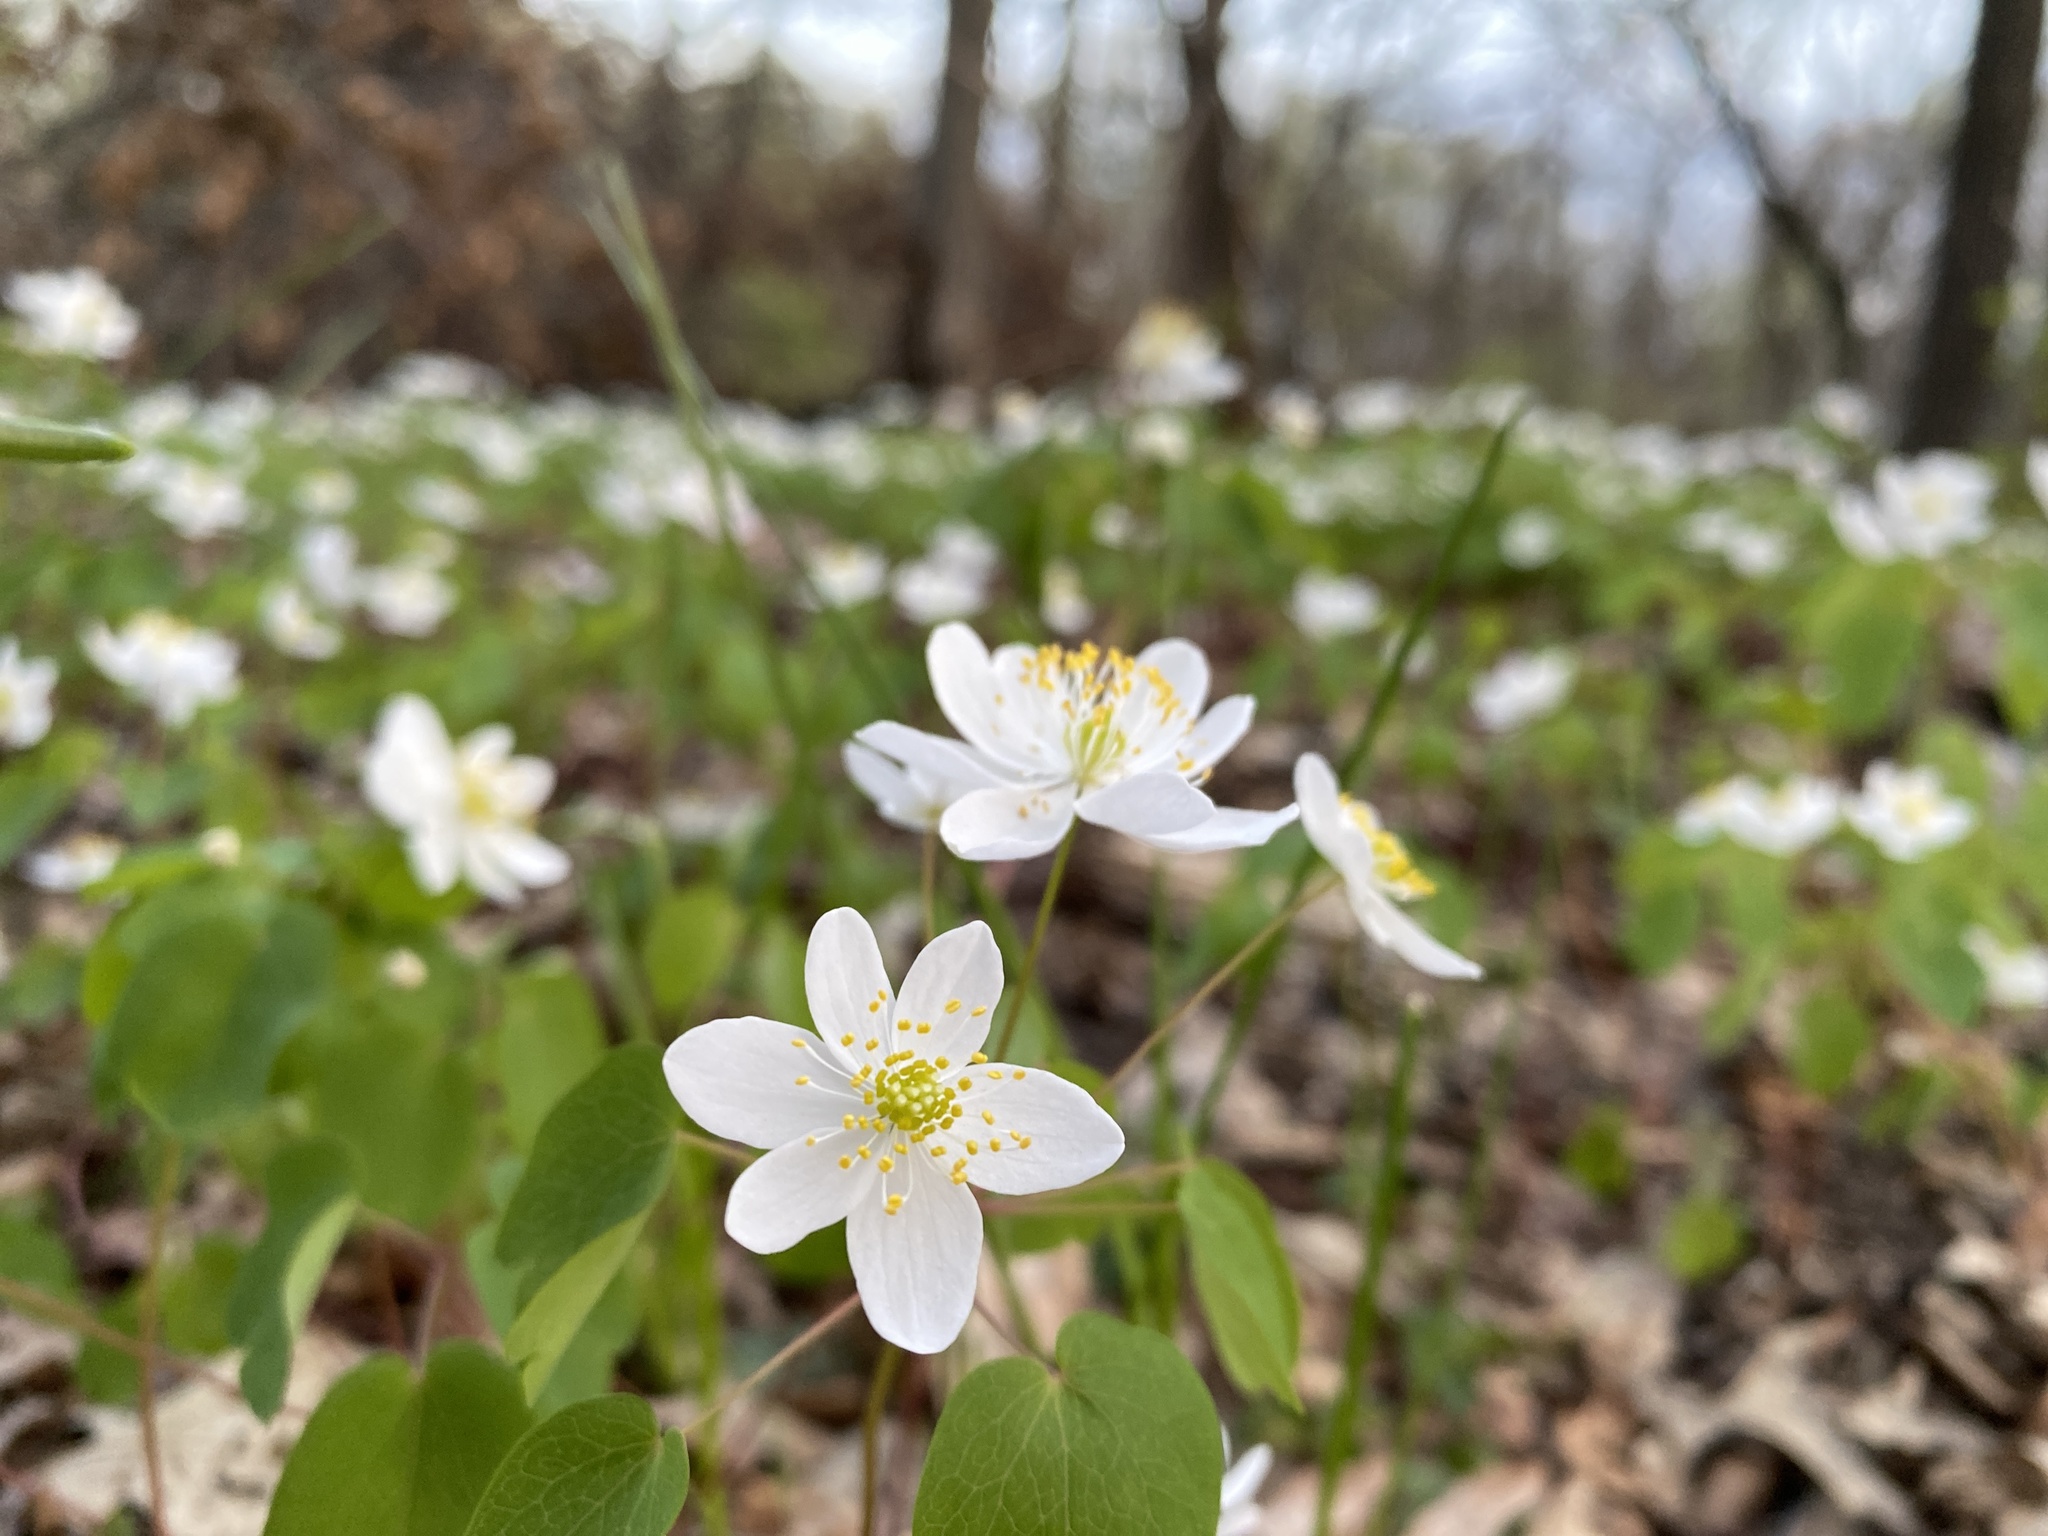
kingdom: Plantae
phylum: Tracheophyta
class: Magnoliopsida
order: Ranunculales
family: Ranunculaceae
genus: Thalictrum
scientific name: Thalictrum thalictroides
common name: Rue-anemone
